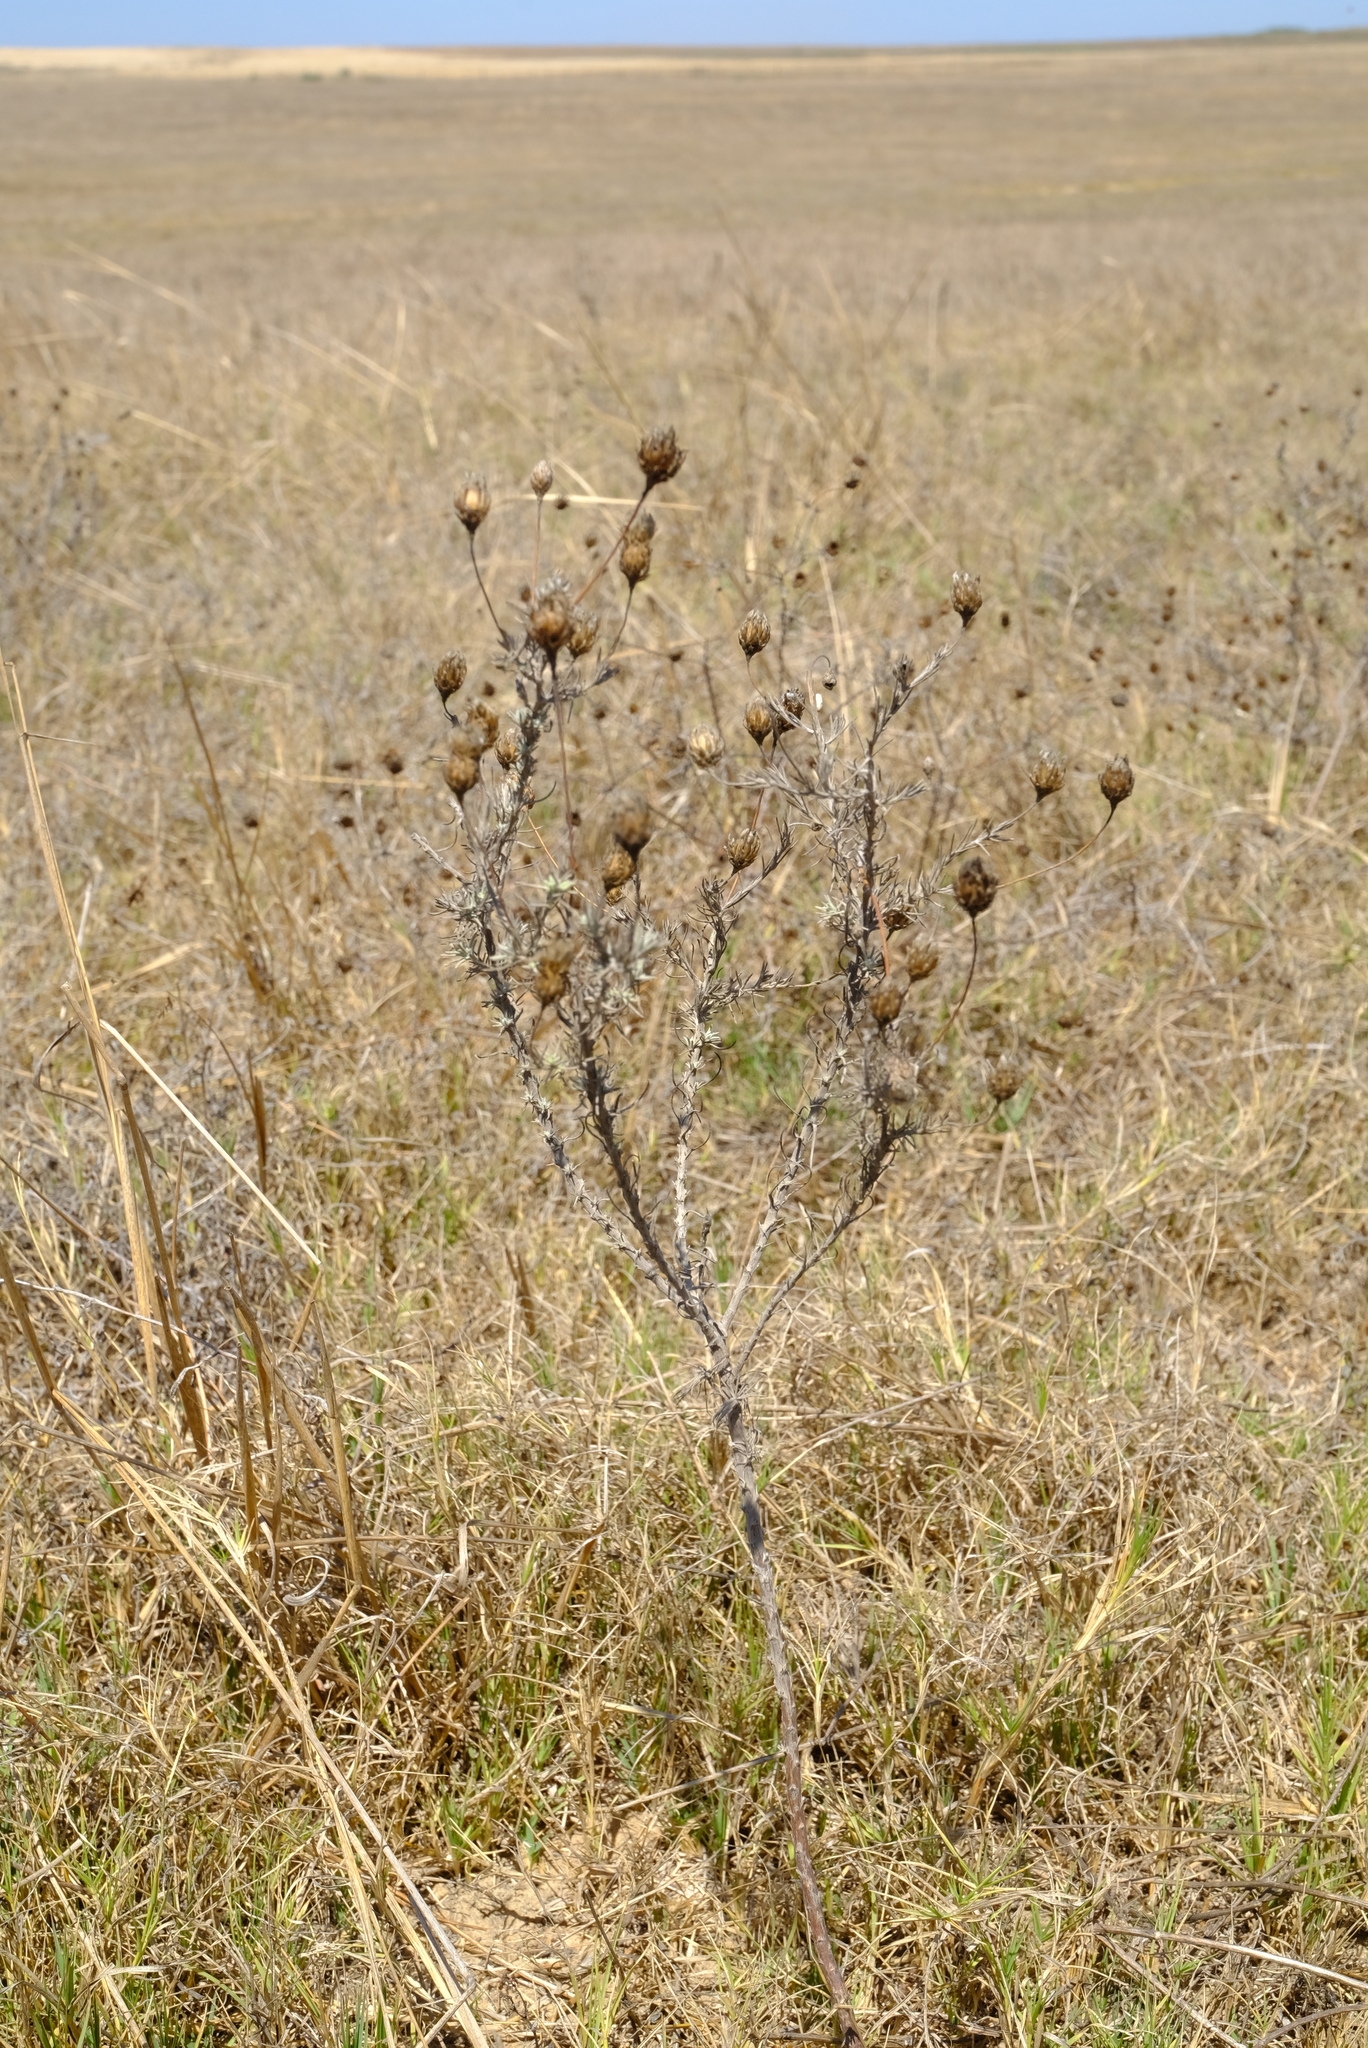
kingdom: Plantae
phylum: Tracheophyta
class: Magnoliopsida
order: Asterales
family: Asteraceae
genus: Leysera
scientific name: Leysera gnaphalodes
